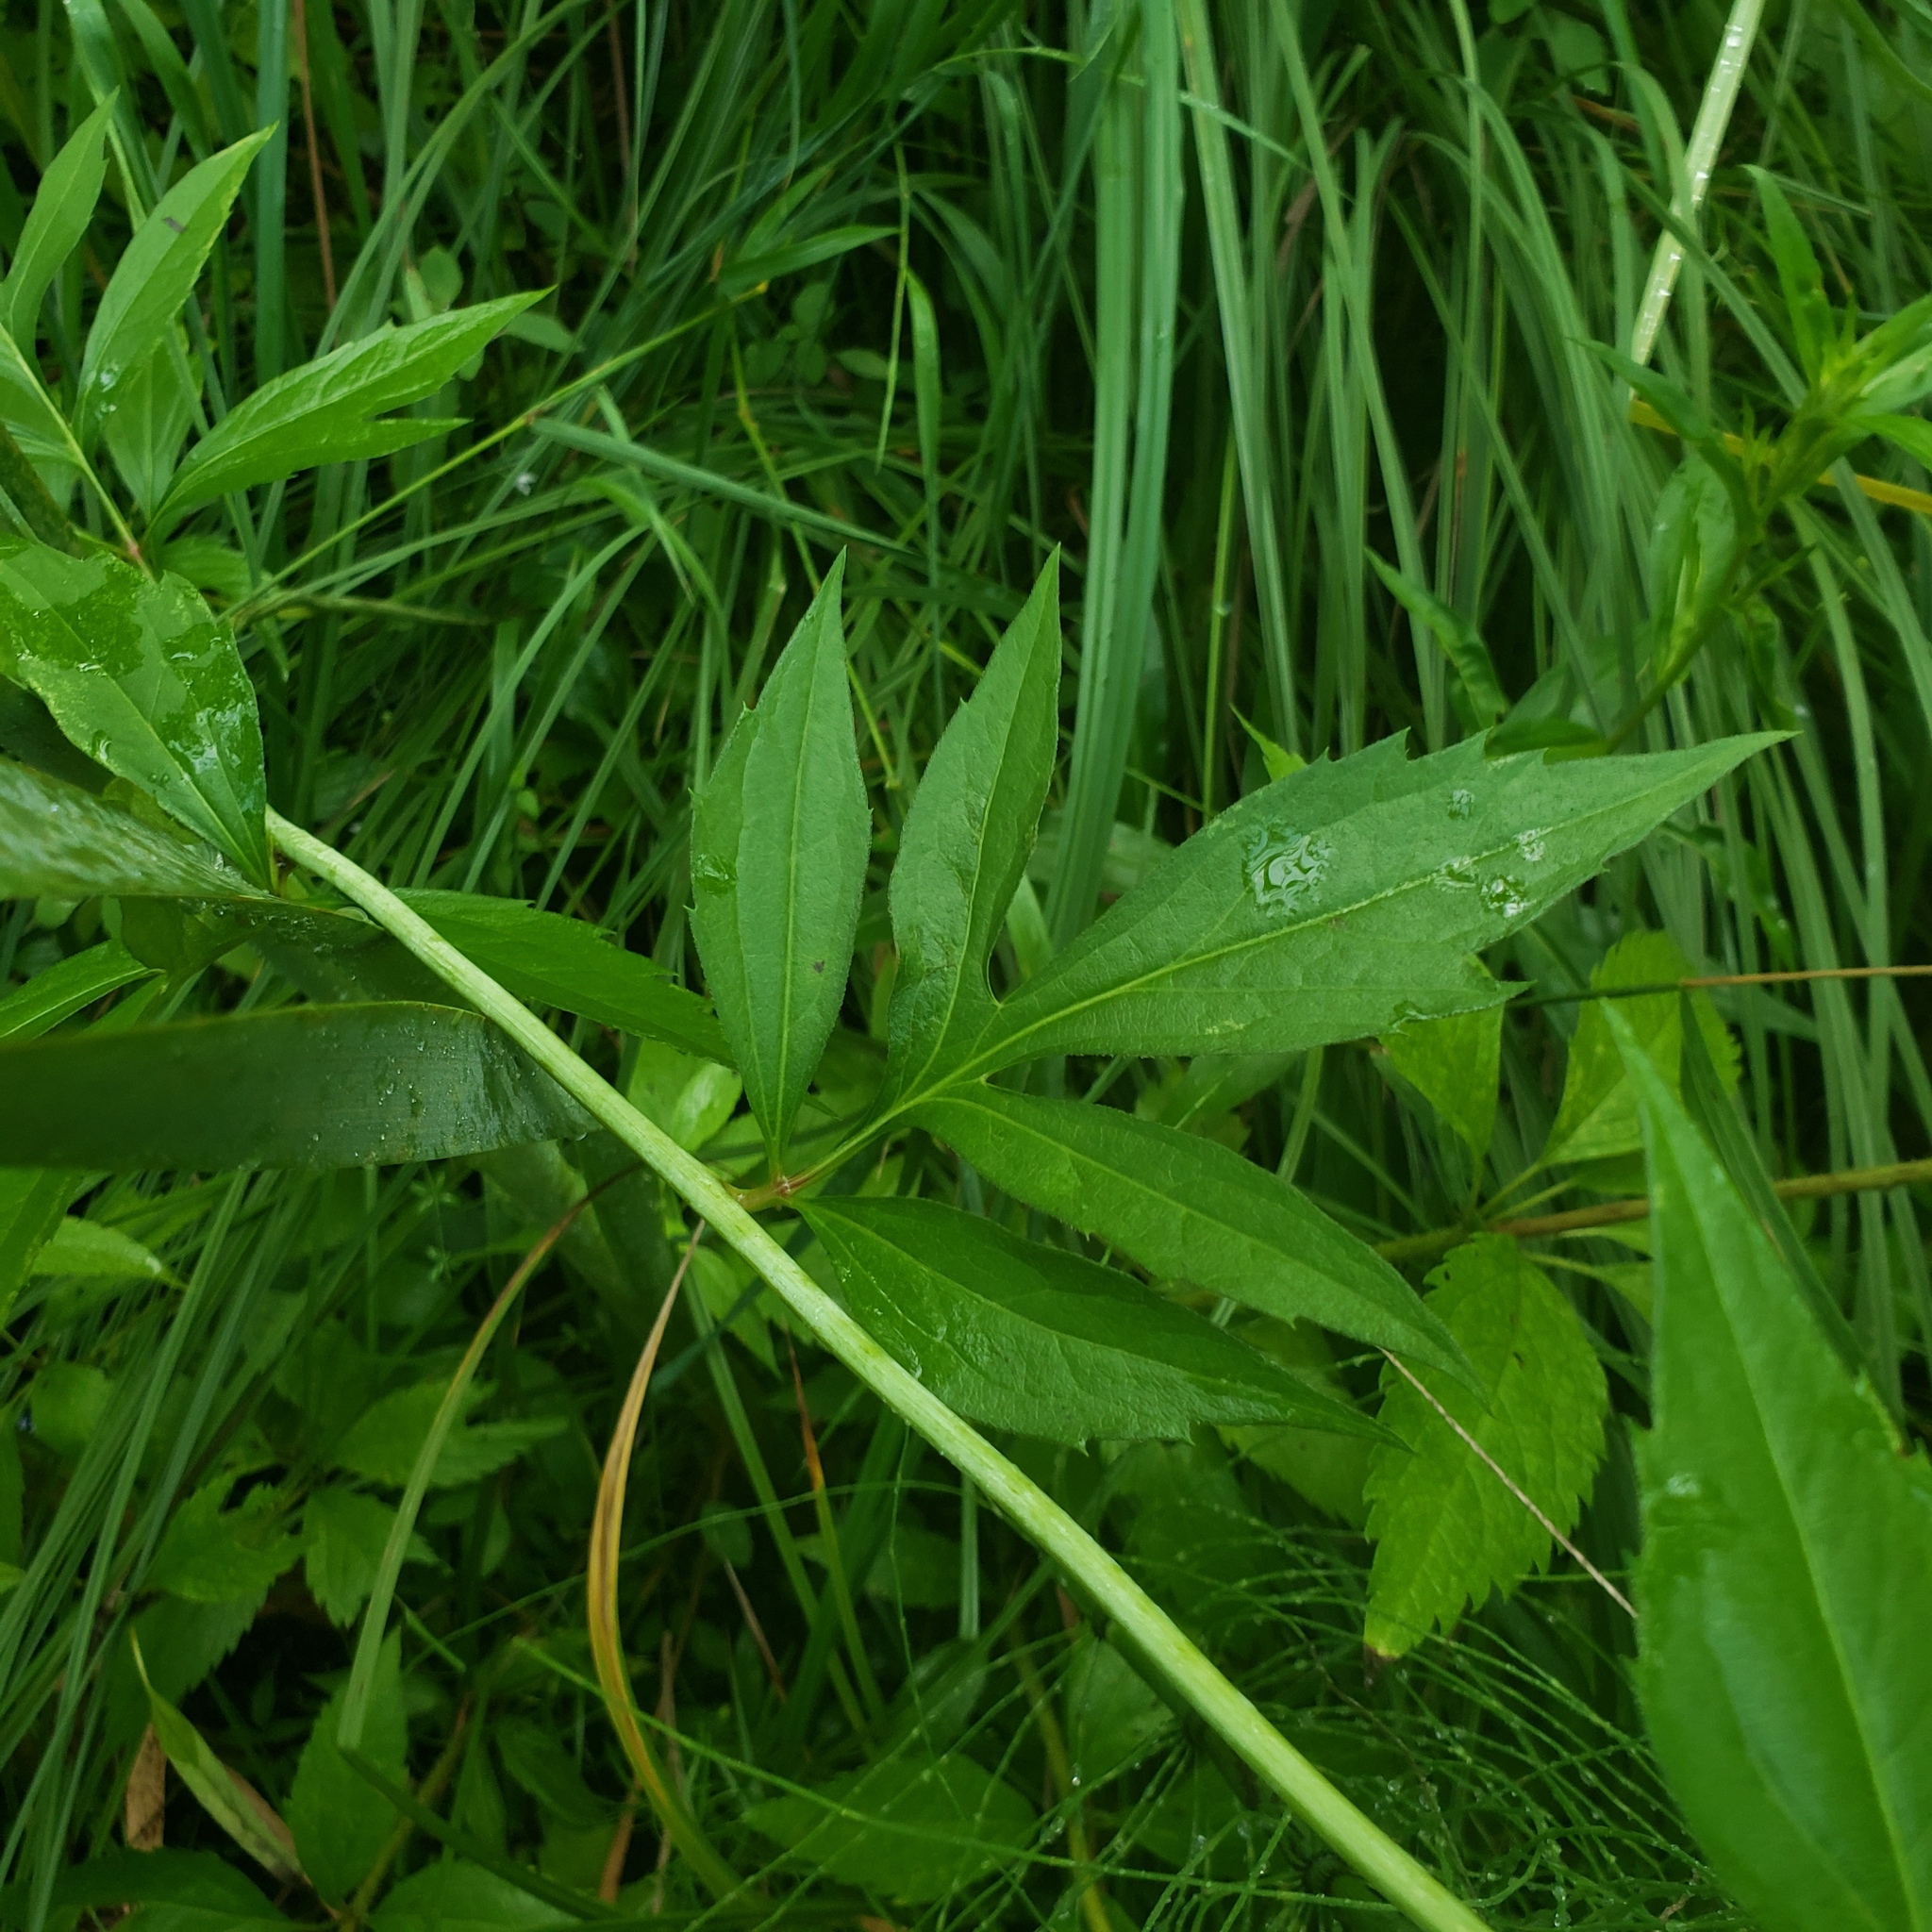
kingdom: Plantae
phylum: Tracheophyta
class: Magnoliopsida
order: Asterales
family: Asteraceae
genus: Rudbeckia
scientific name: Rudbeckia laciniata
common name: Coneflower
